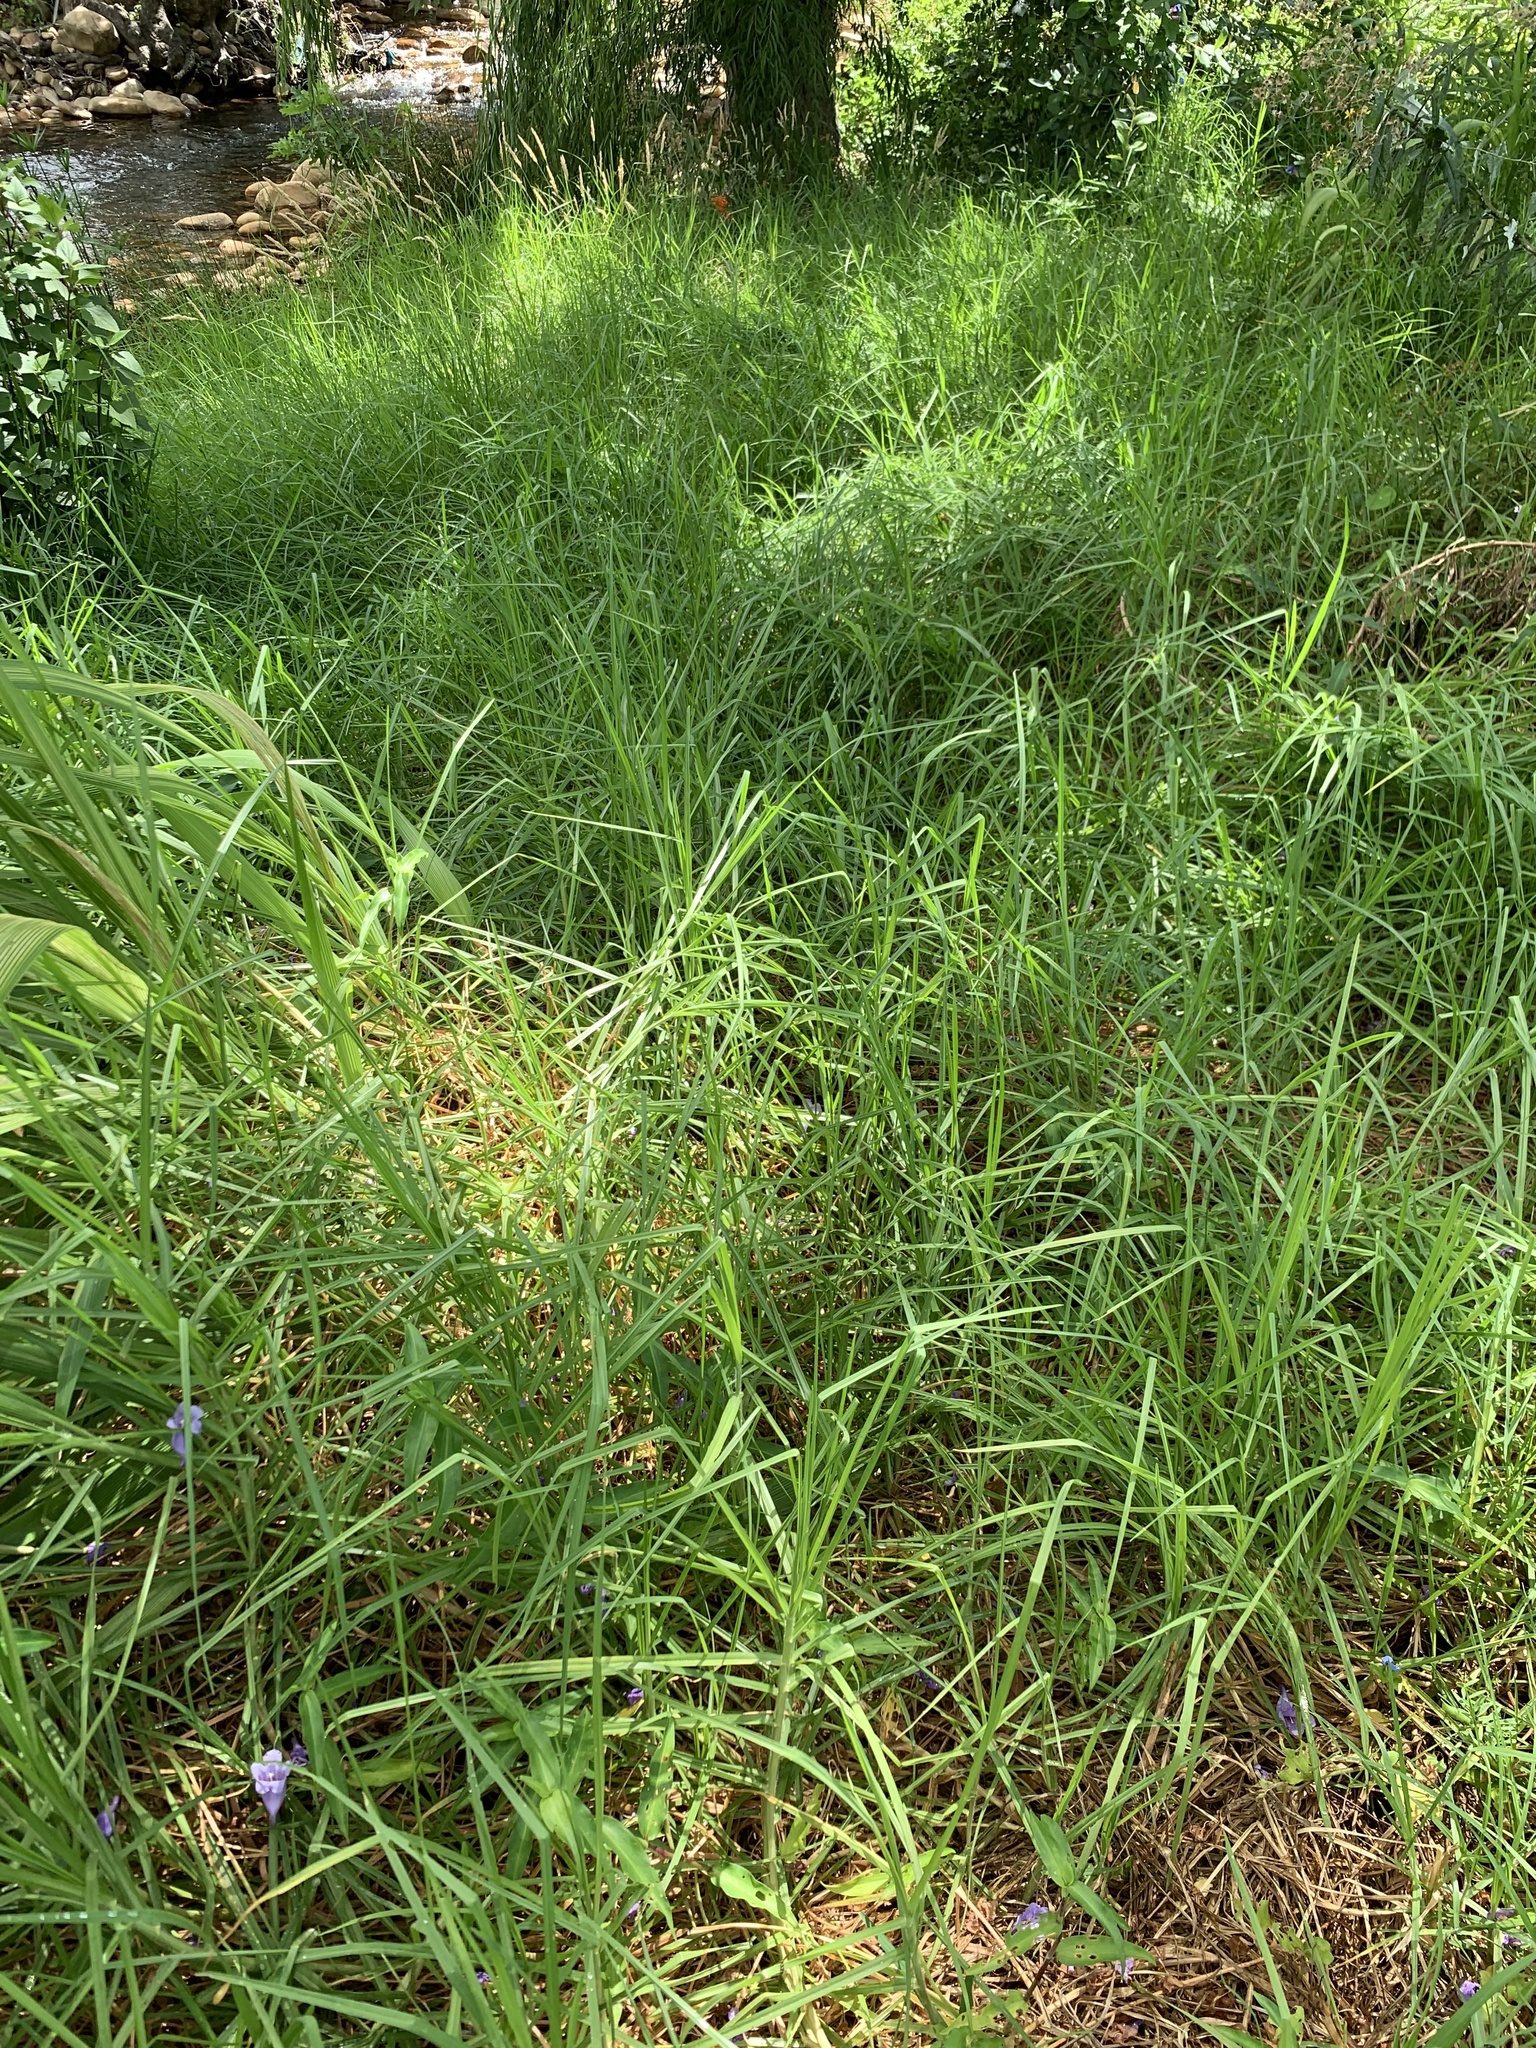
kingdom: Plantae
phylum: Tracheophyta
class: Liliopsida
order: Poales
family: Poaceae
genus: Cenchrus
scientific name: Cenchrus clandestinus
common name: Kikuyugrass
